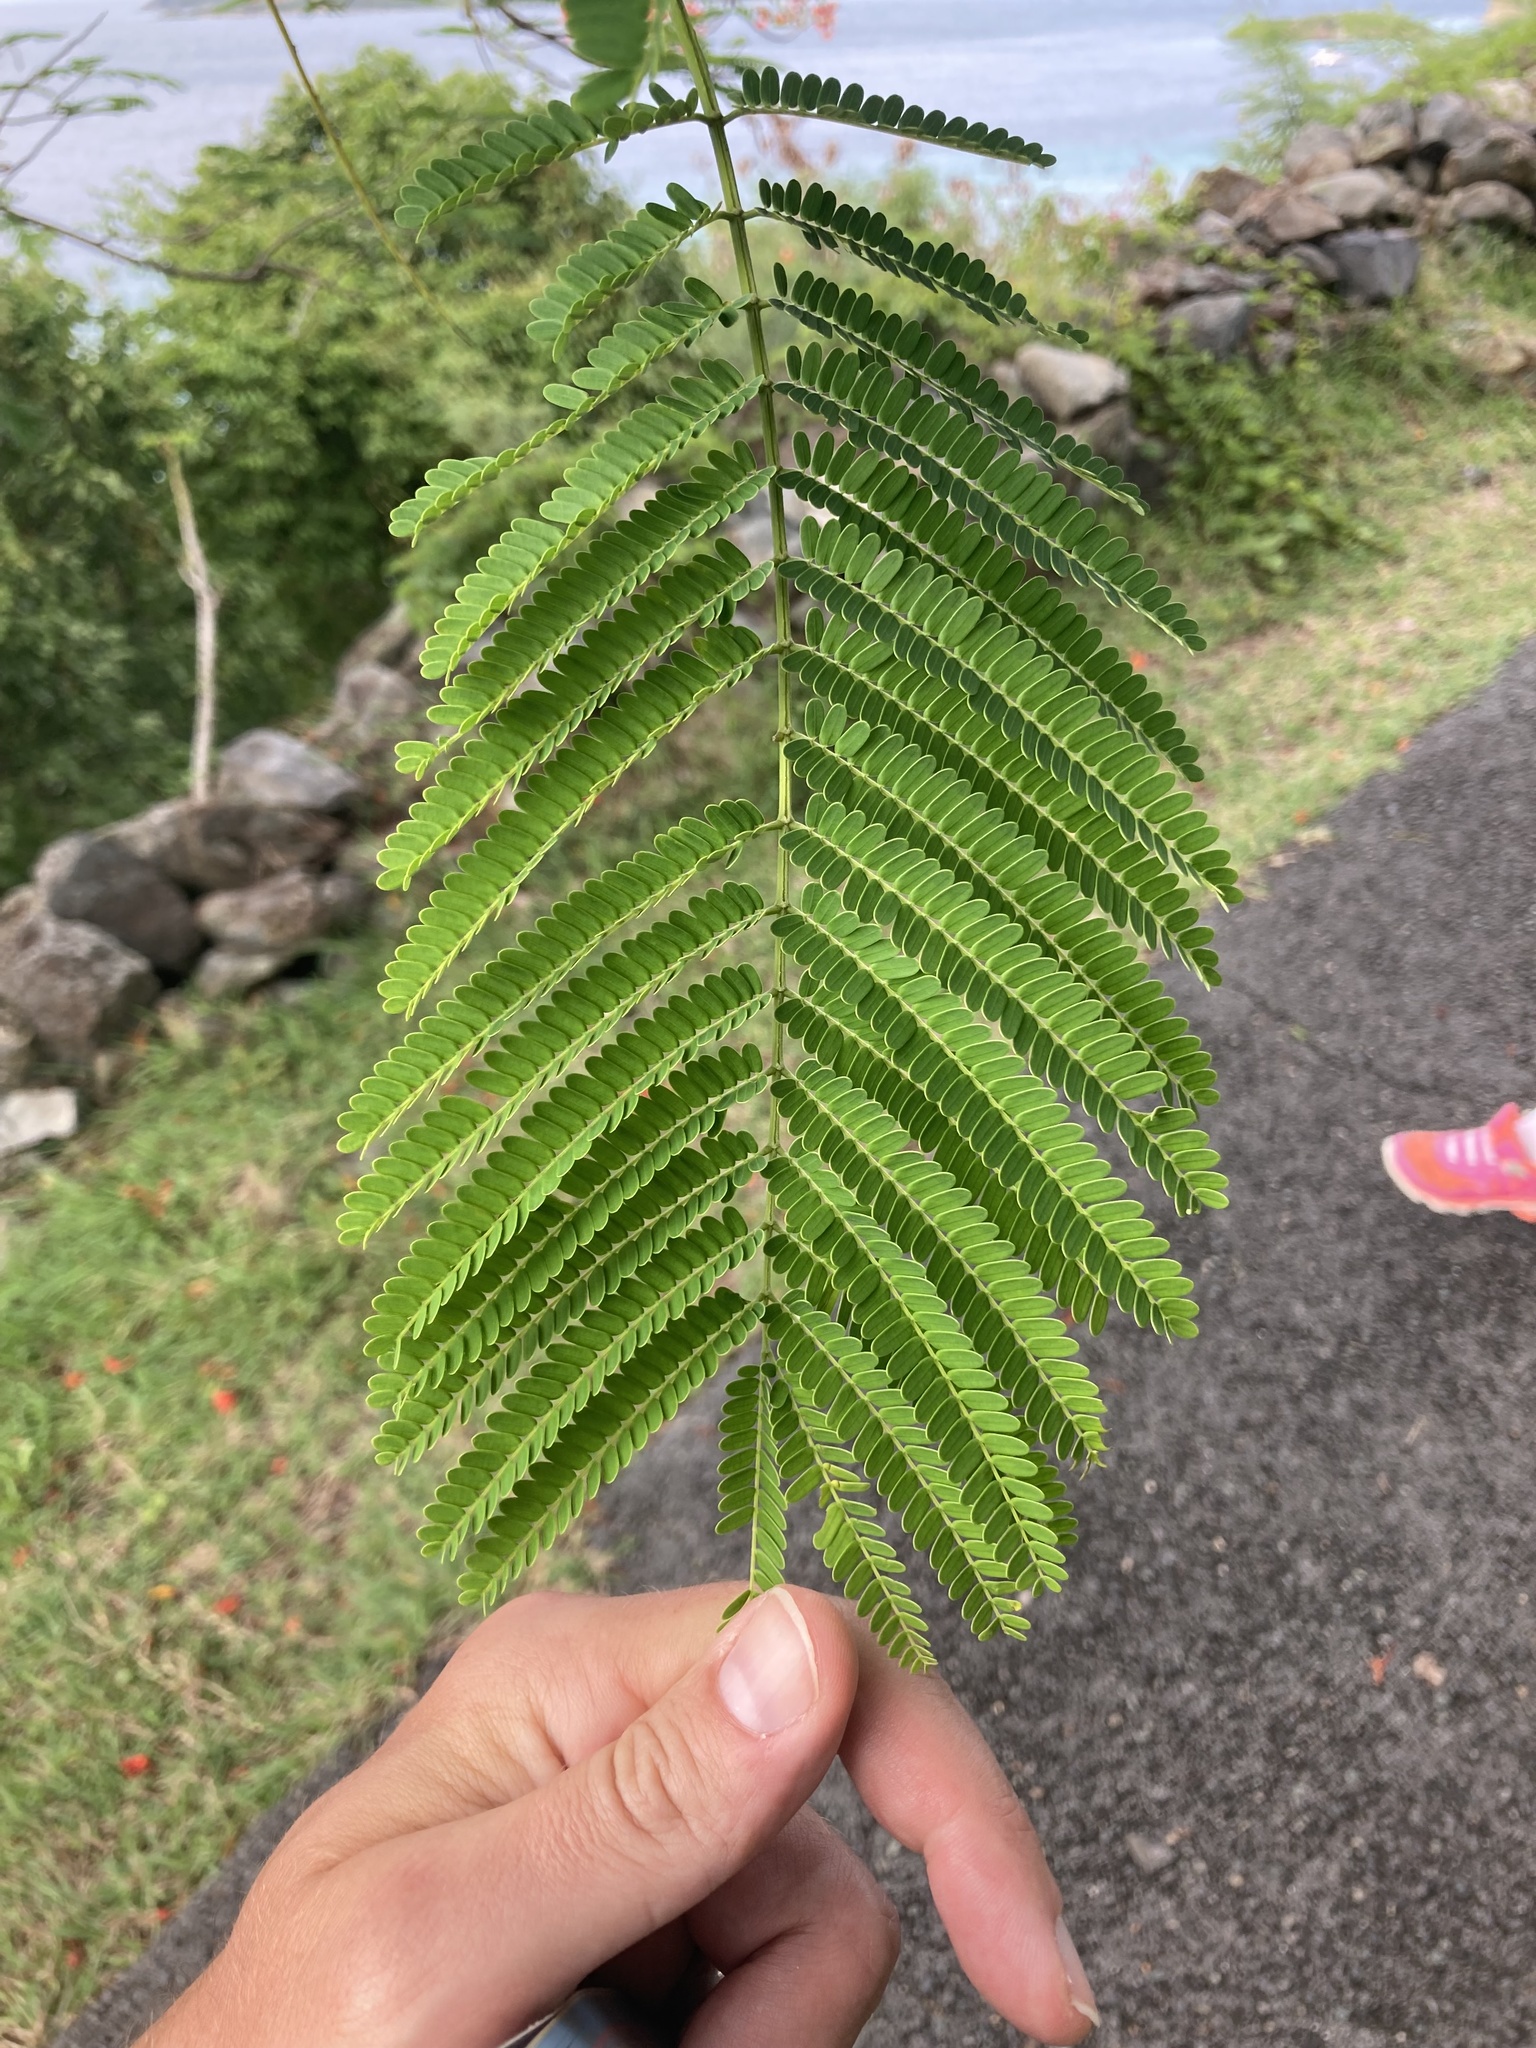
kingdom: Plantae
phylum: Tracheophyta
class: Magnoliopsida
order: Fabales
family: Fabaceae
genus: Delonix
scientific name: Delonix regia
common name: Royal poinciana
